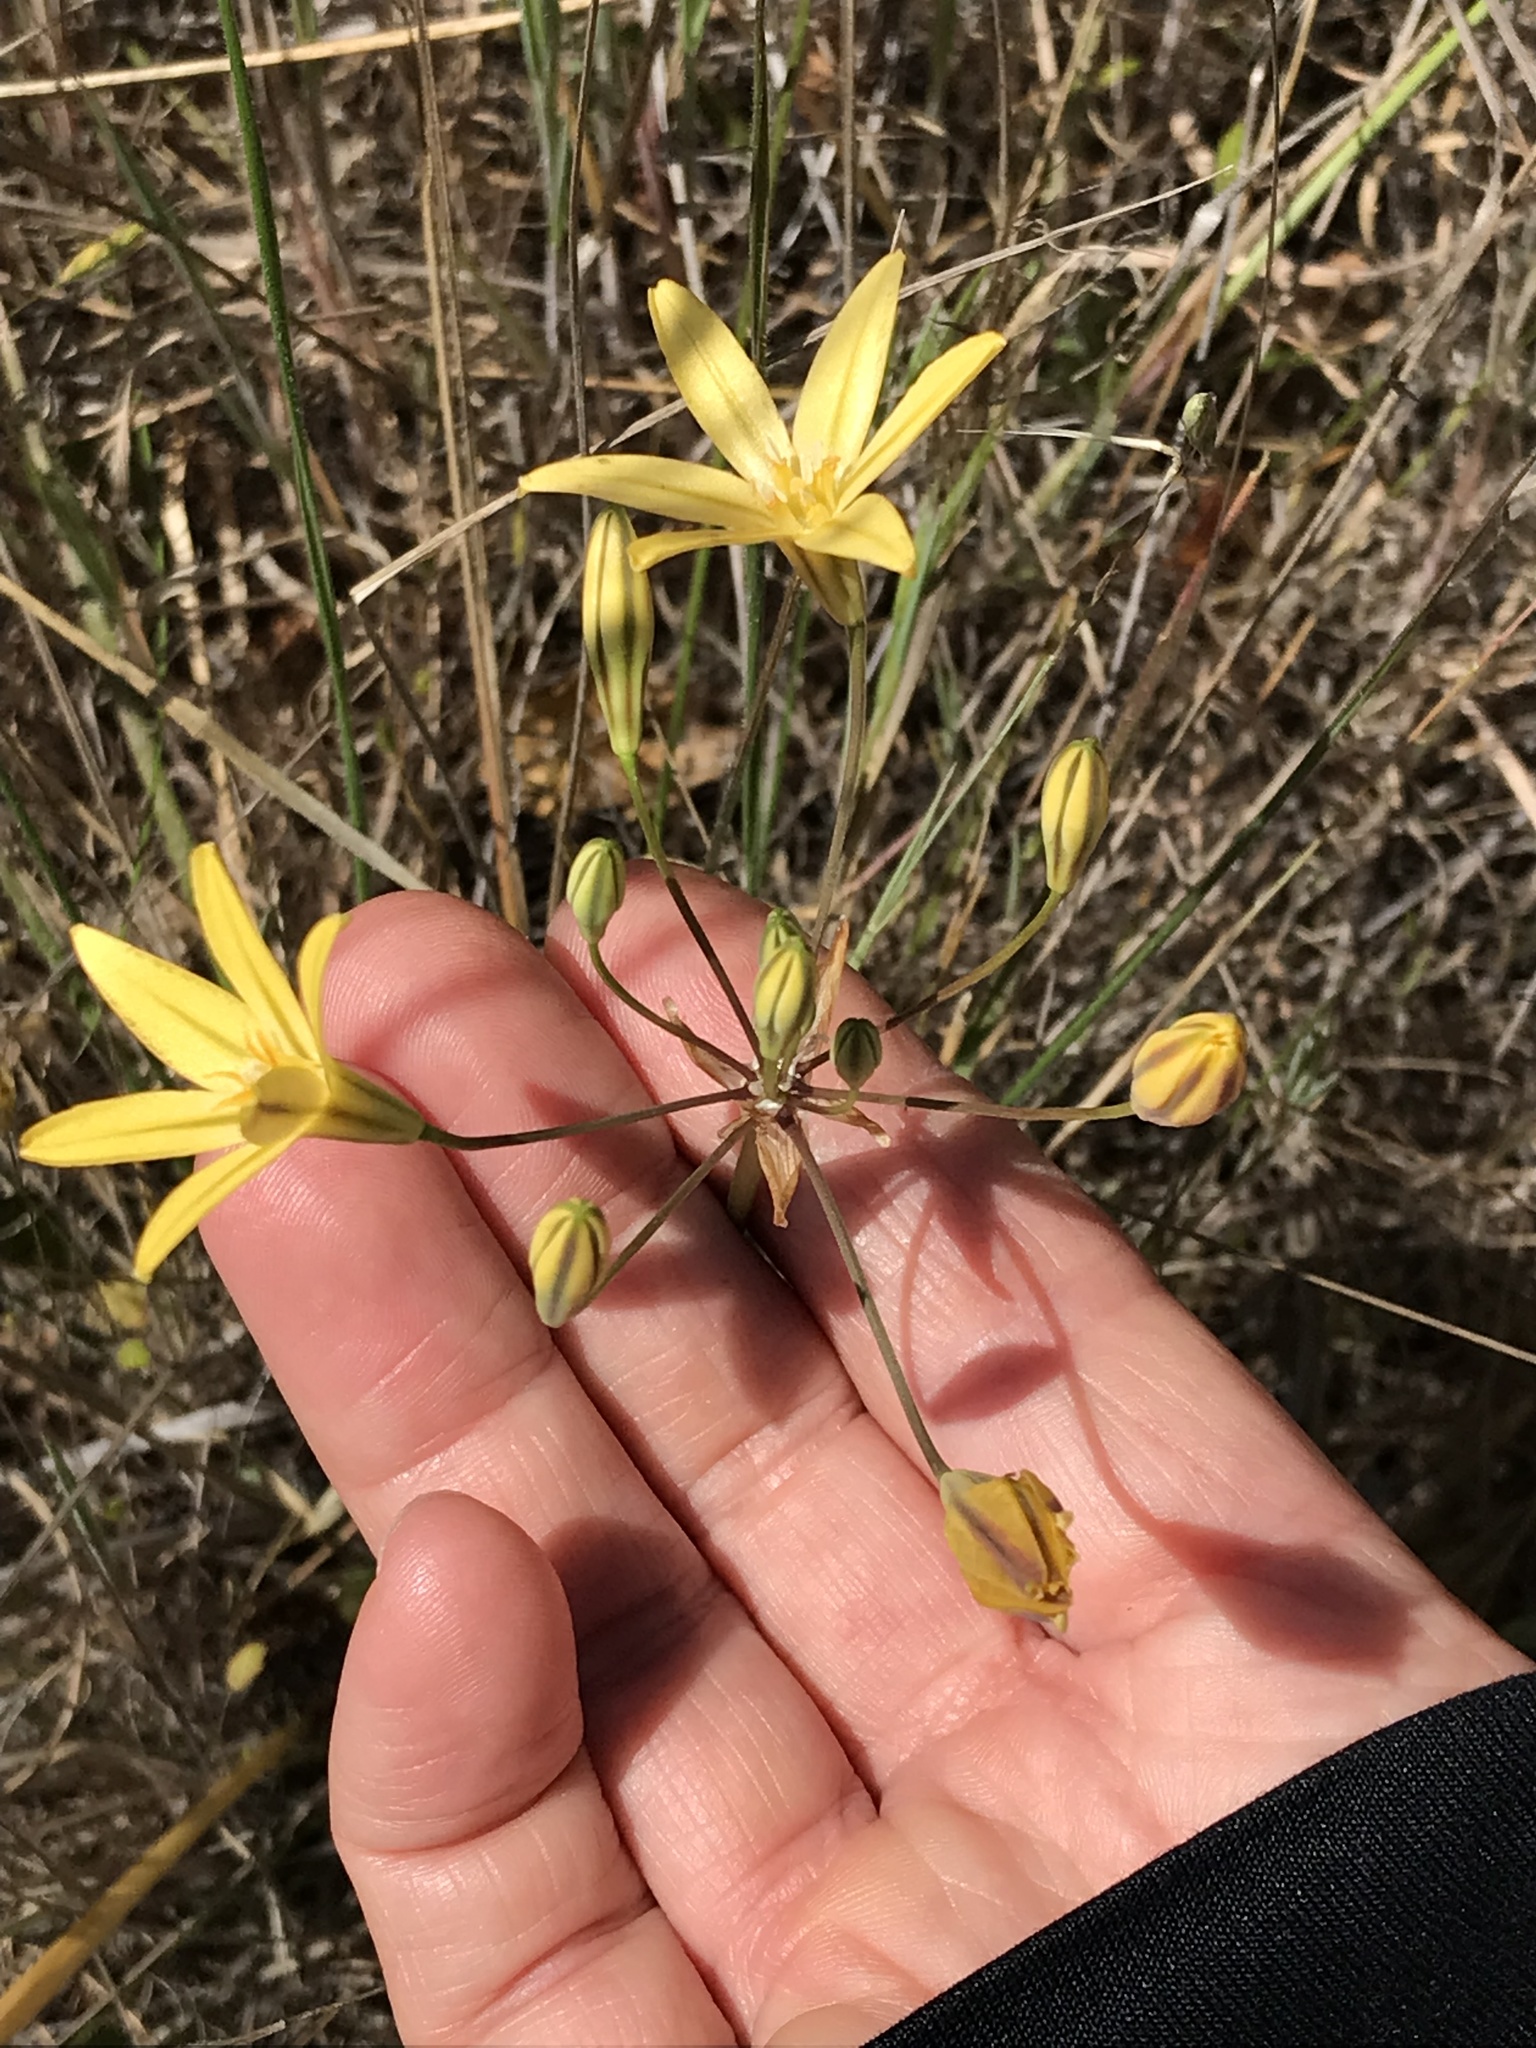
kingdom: Plantae
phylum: Tracheophyta
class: Liliopsida
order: Asparagales
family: Asparagaceae
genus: Triteleia
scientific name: Triteleia ixioides
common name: Yellow-brodiaea
